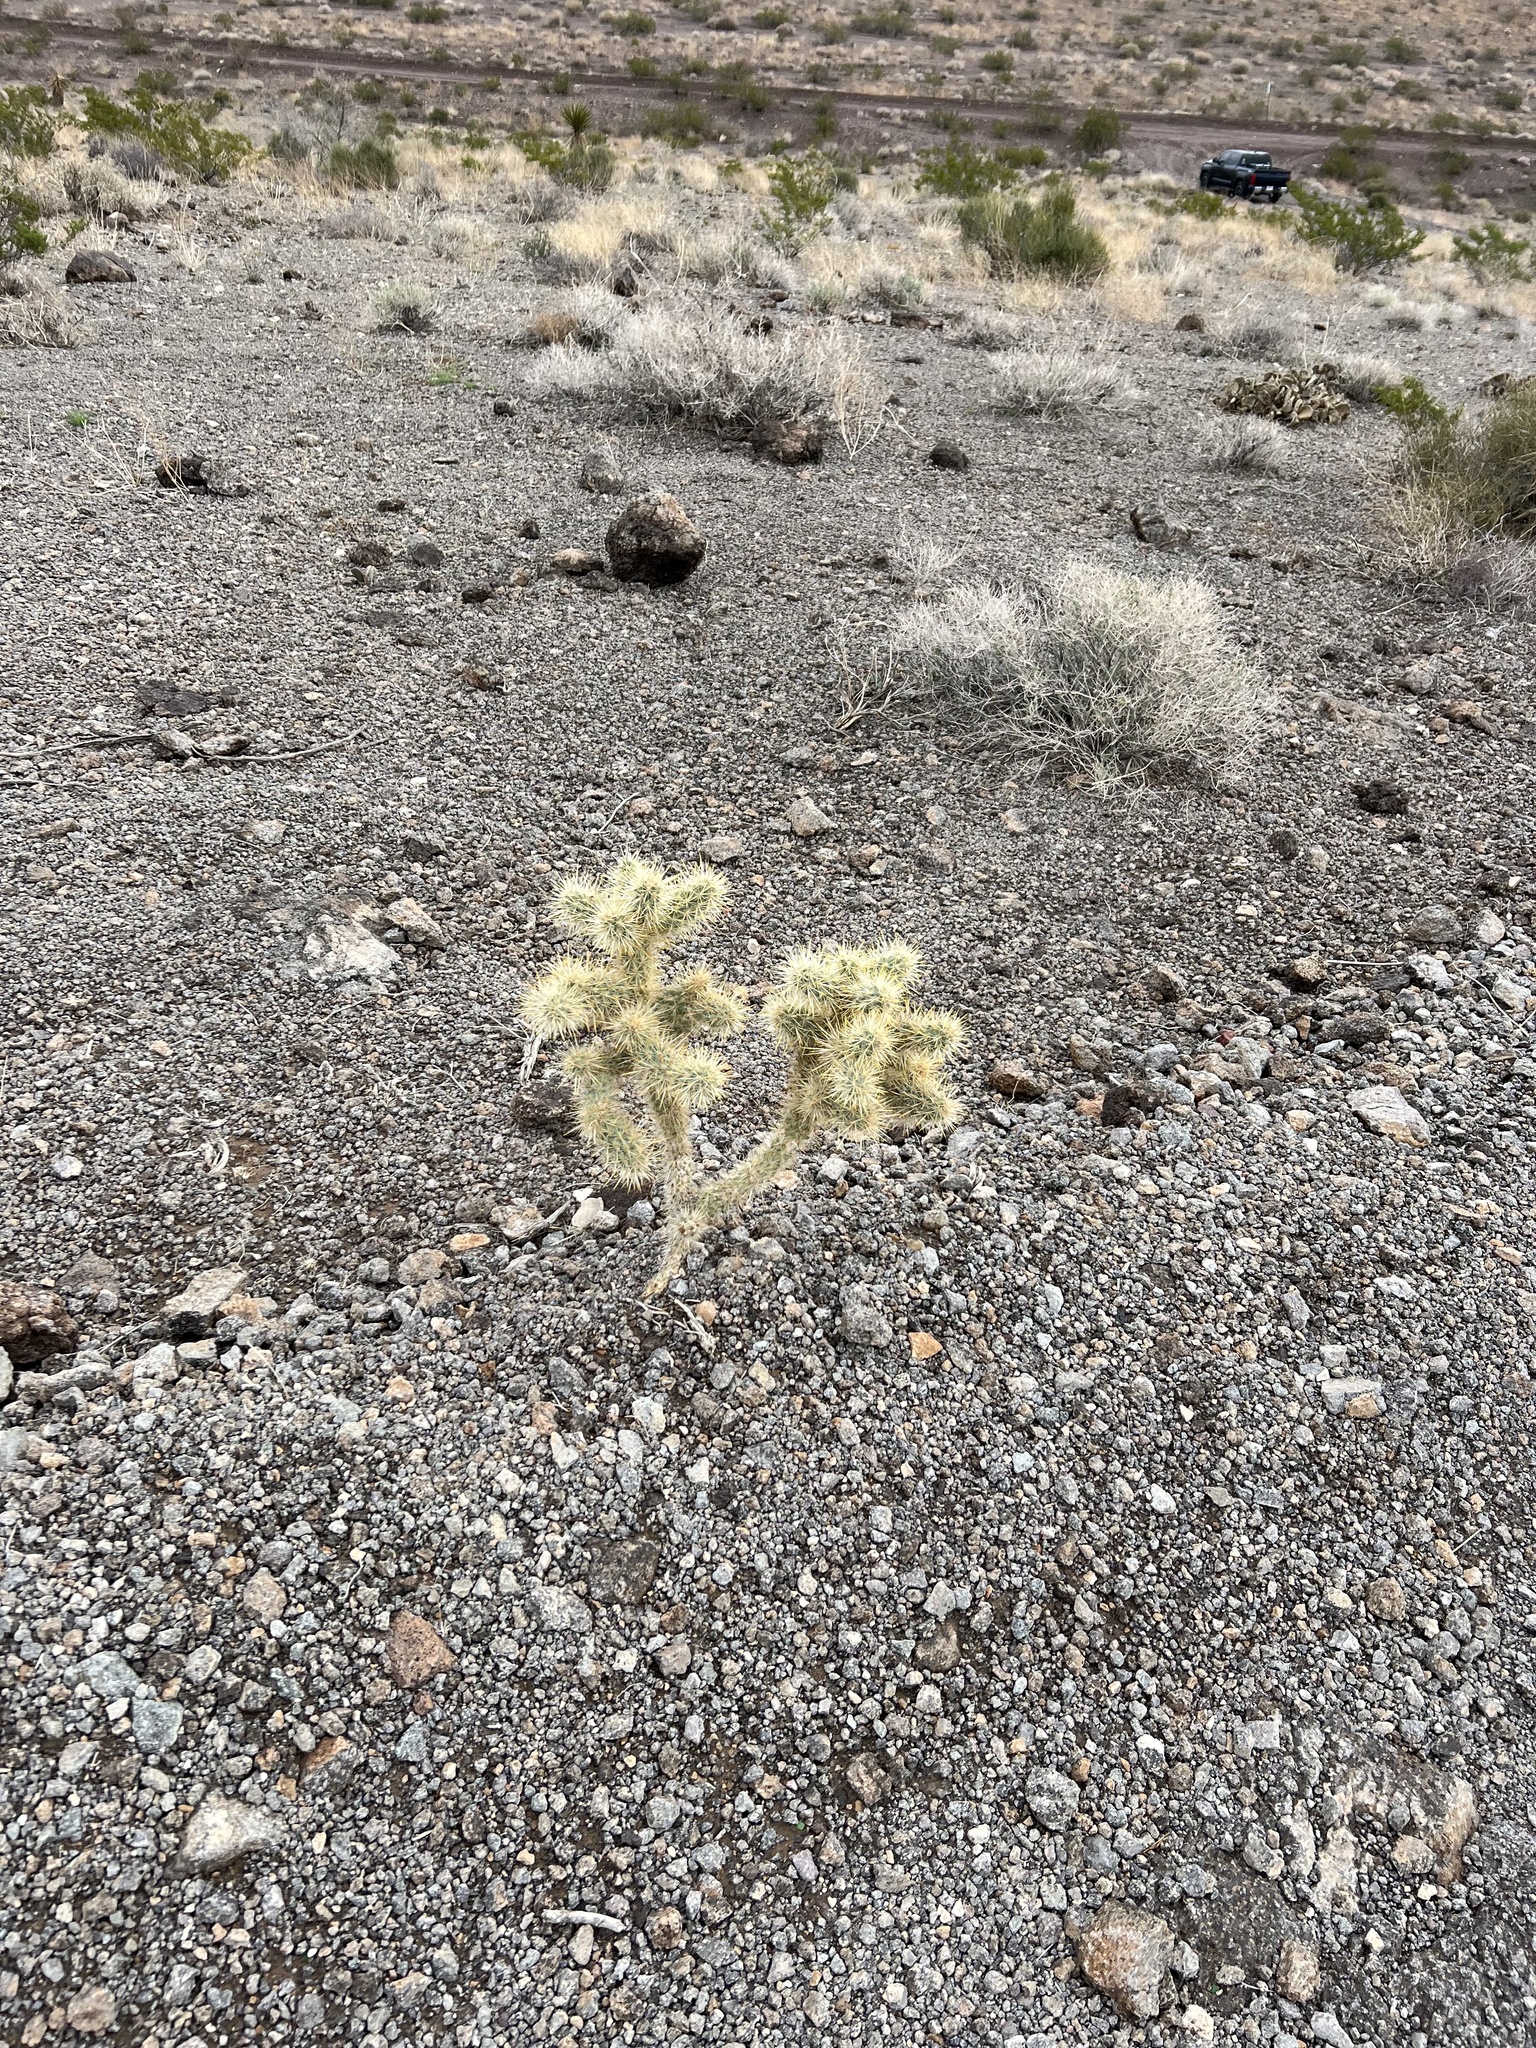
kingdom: Plantae
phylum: Tracheophyta
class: Magnoliopsida
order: Caryophyllales
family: Cactaceae
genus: Cylindropuntia
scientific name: Cylindropuntia echinocarpa
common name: Ground cholla
